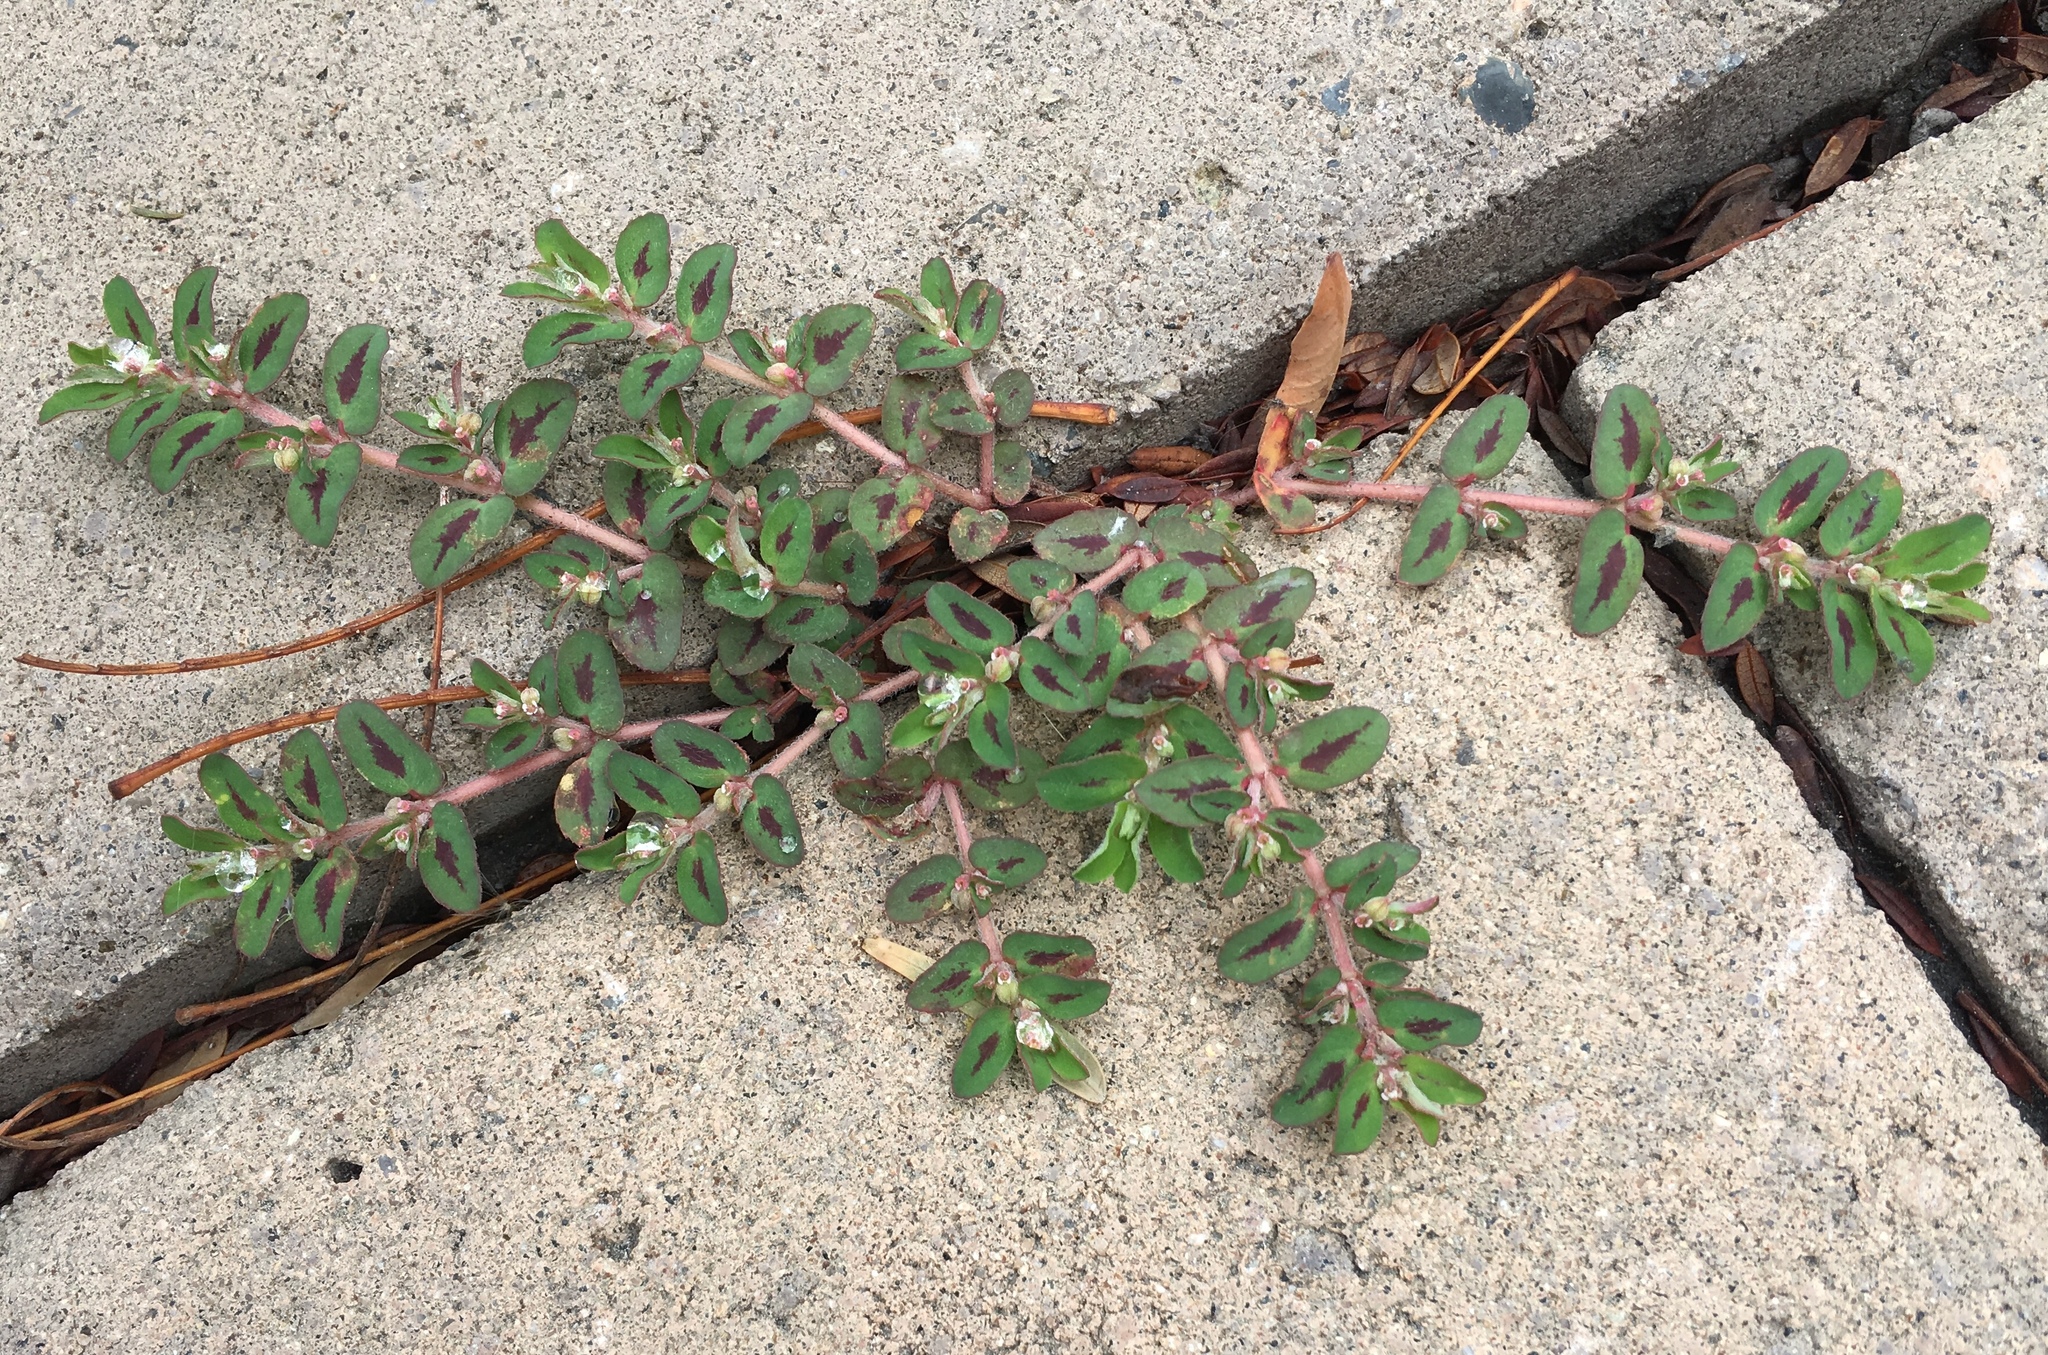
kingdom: Plantae
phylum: Tracheophyta
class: Magnoliopsida
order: Malpighiales
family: Euphorbiaceae
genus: Euphorbia
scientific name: Euphorbia maculata
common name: Spotted spurge
